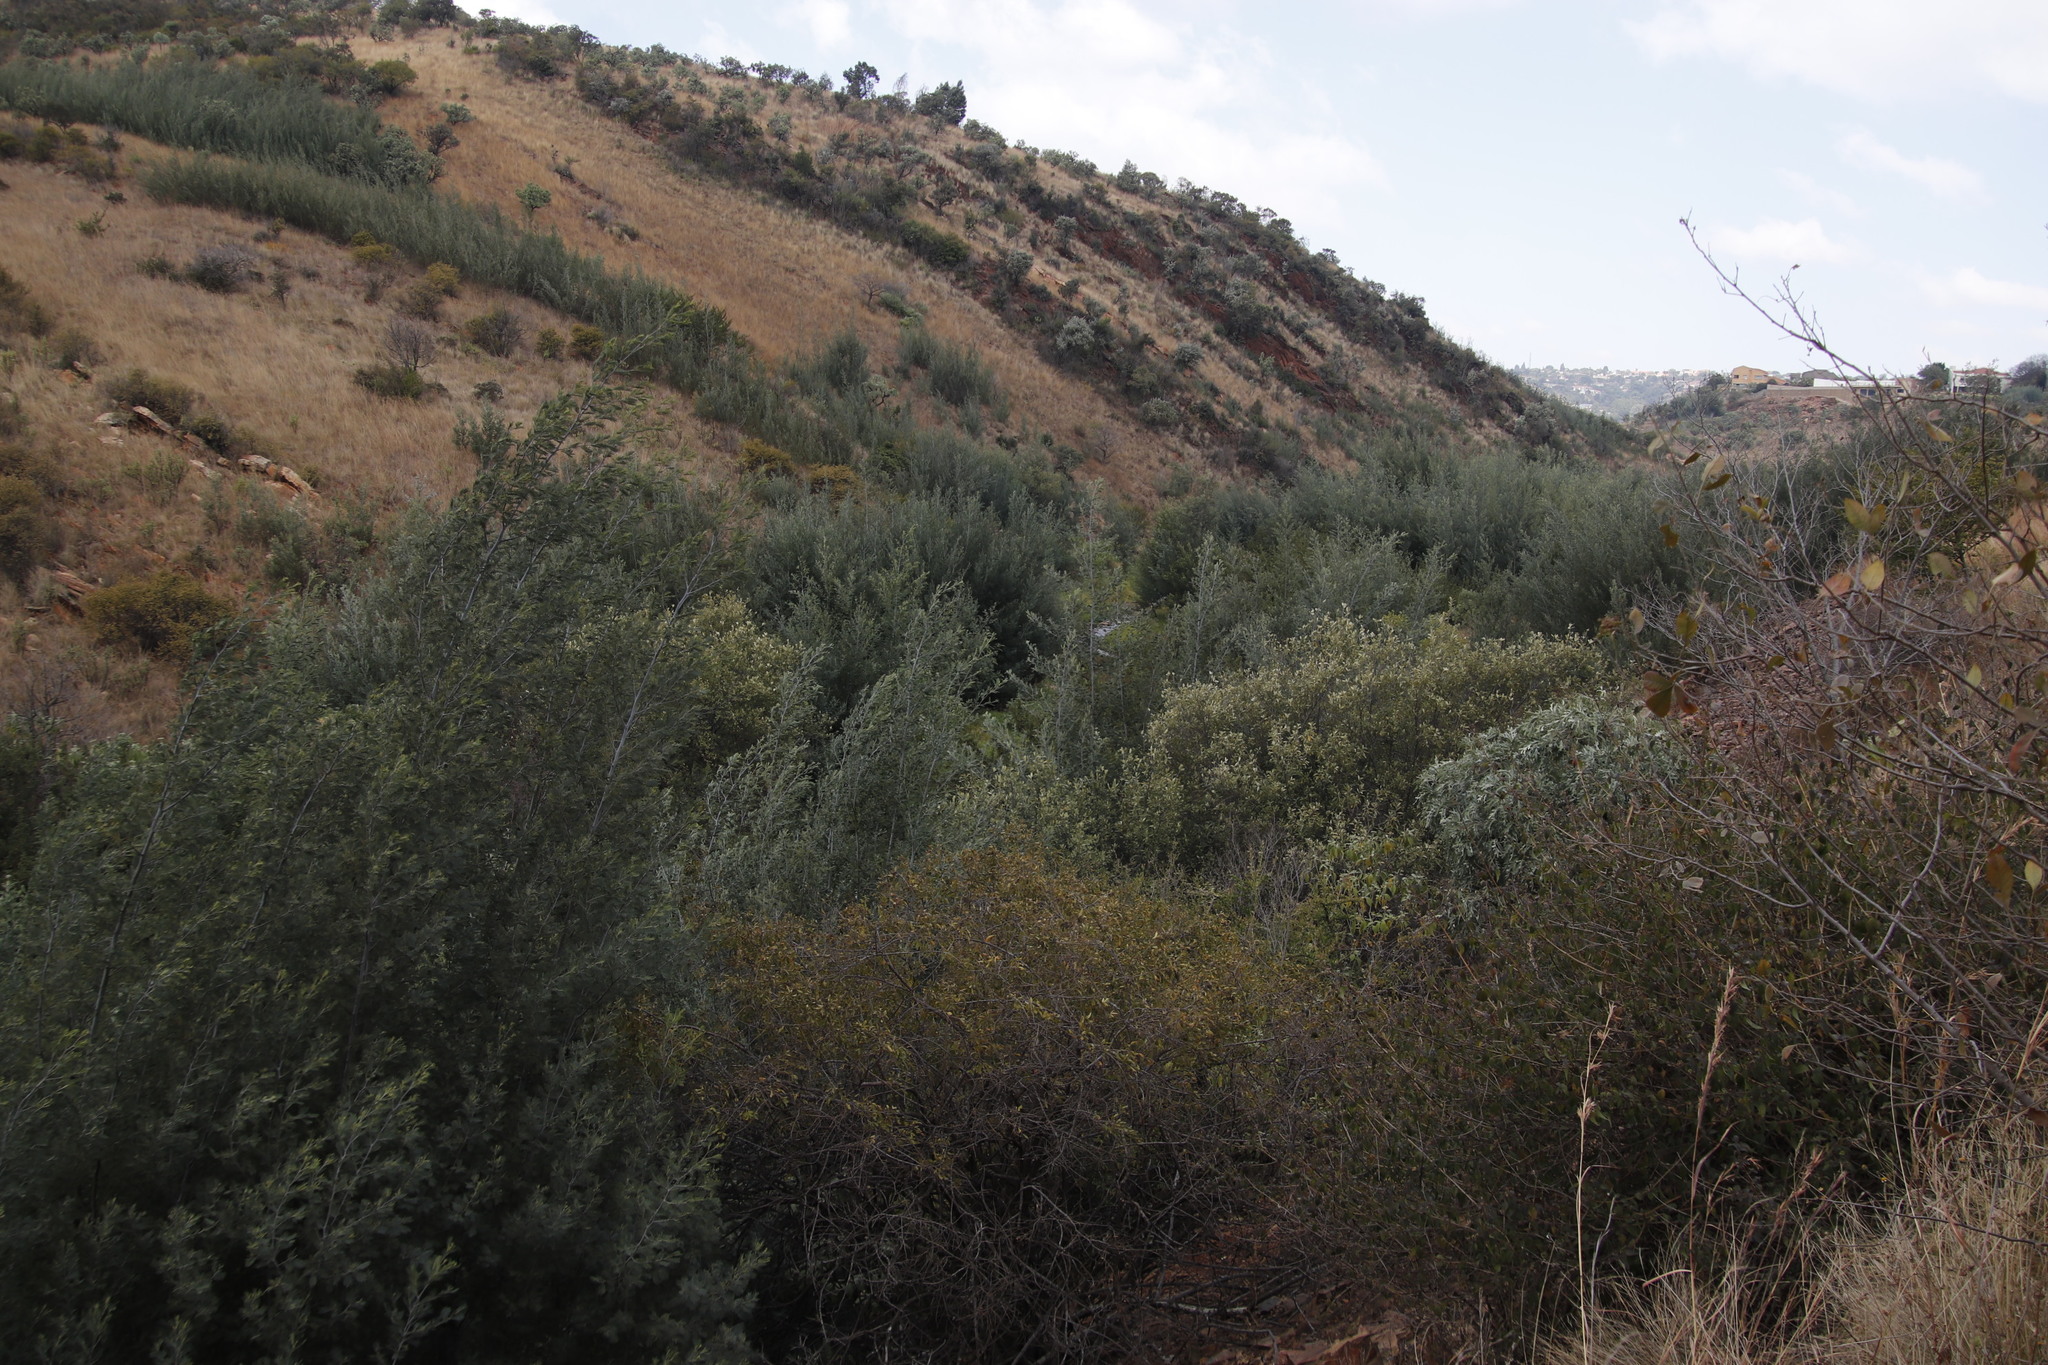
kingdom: Plantae
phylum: Tracheophyta
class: Magnoliopsida
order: Fabales
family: Fabaceae
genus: Acacia
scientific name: Acacia dealbata
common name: Silver wattle
